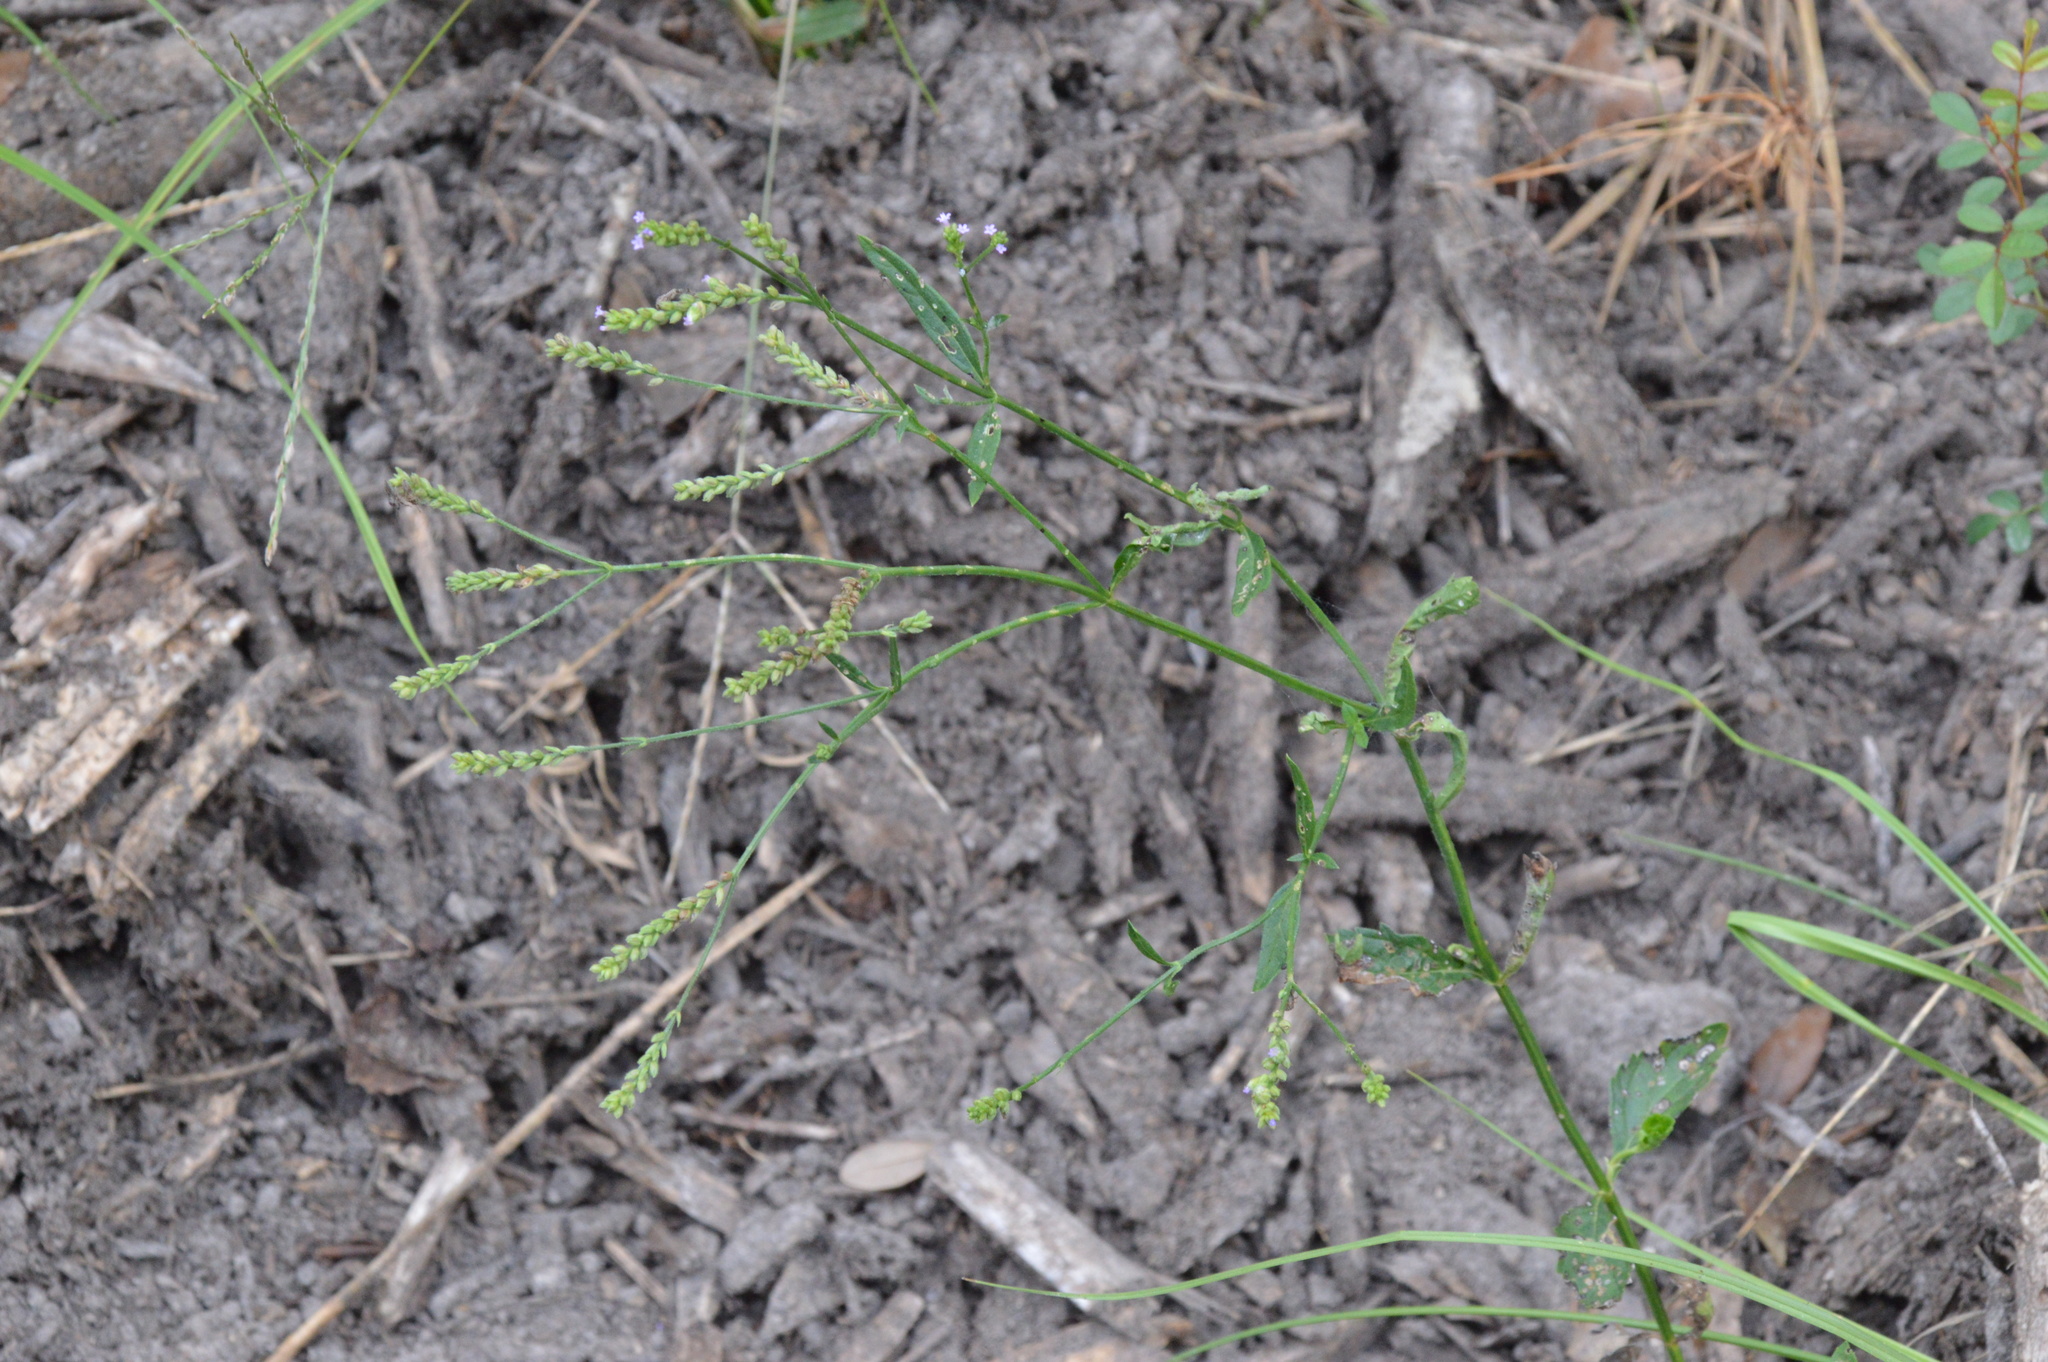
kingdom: Plantae
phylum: Tracheophyta
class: Magnoliopsida
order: Lamiales
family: Verbenaceae
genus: Verbena
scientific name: Verbena brasiliensis
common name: Brazilian vervain
